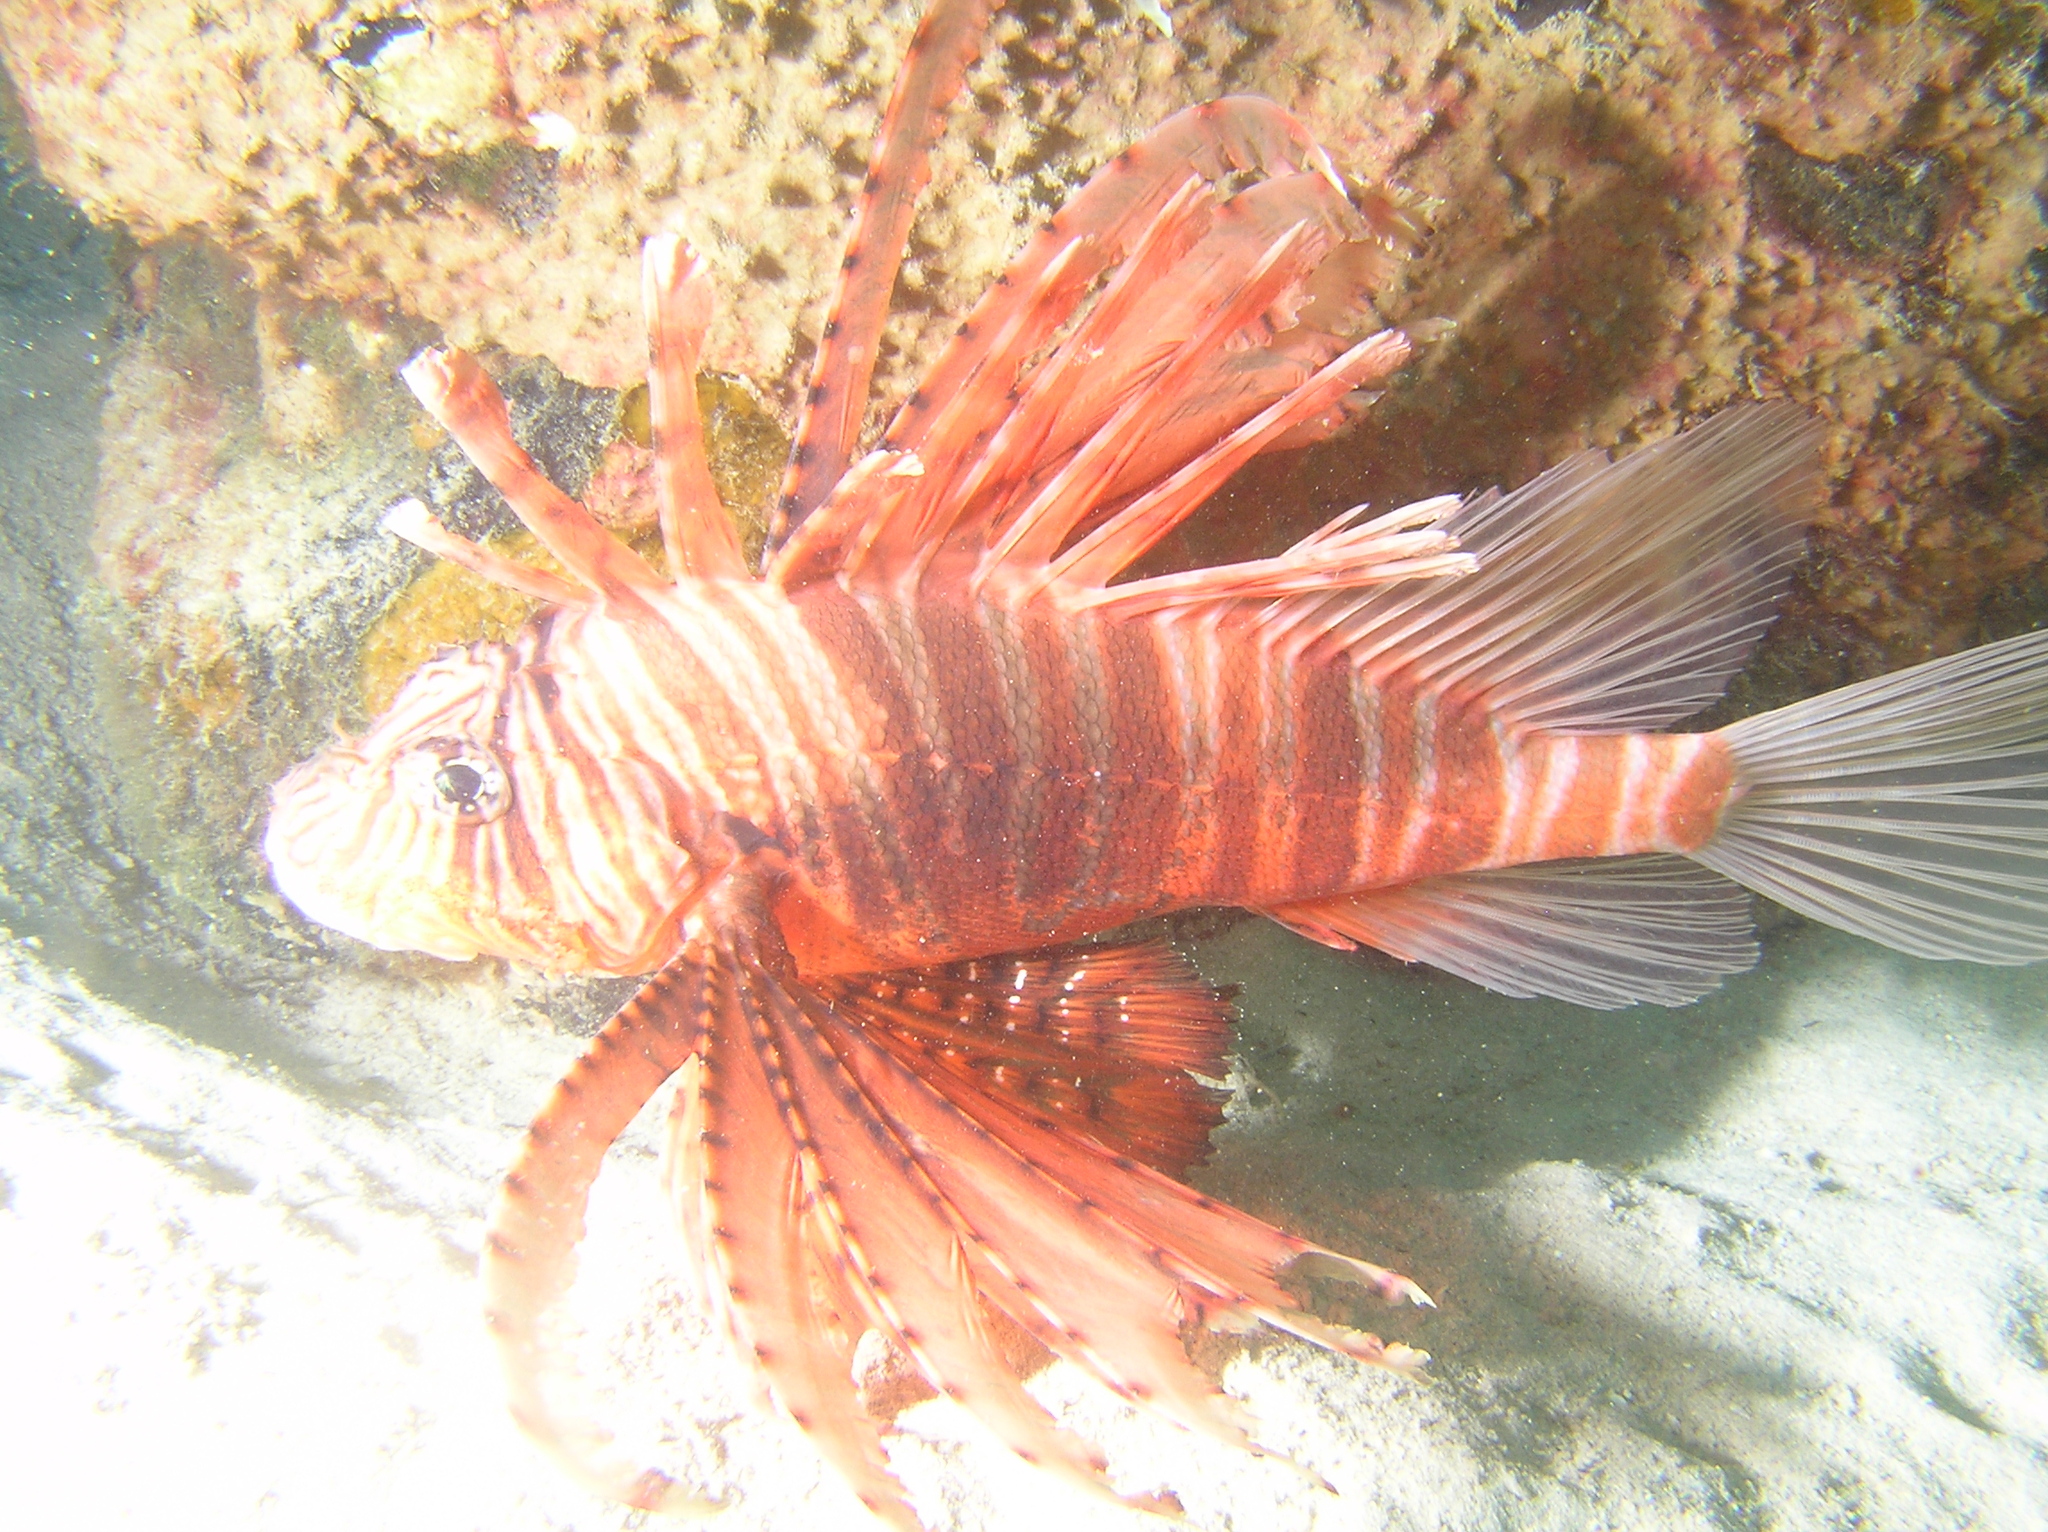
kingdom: Animalia
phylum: Chordata
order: Scorpaeniformes
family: Scorpaenidae
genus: Pterois
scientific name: Pterois russelii
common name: Plaintail firefish
